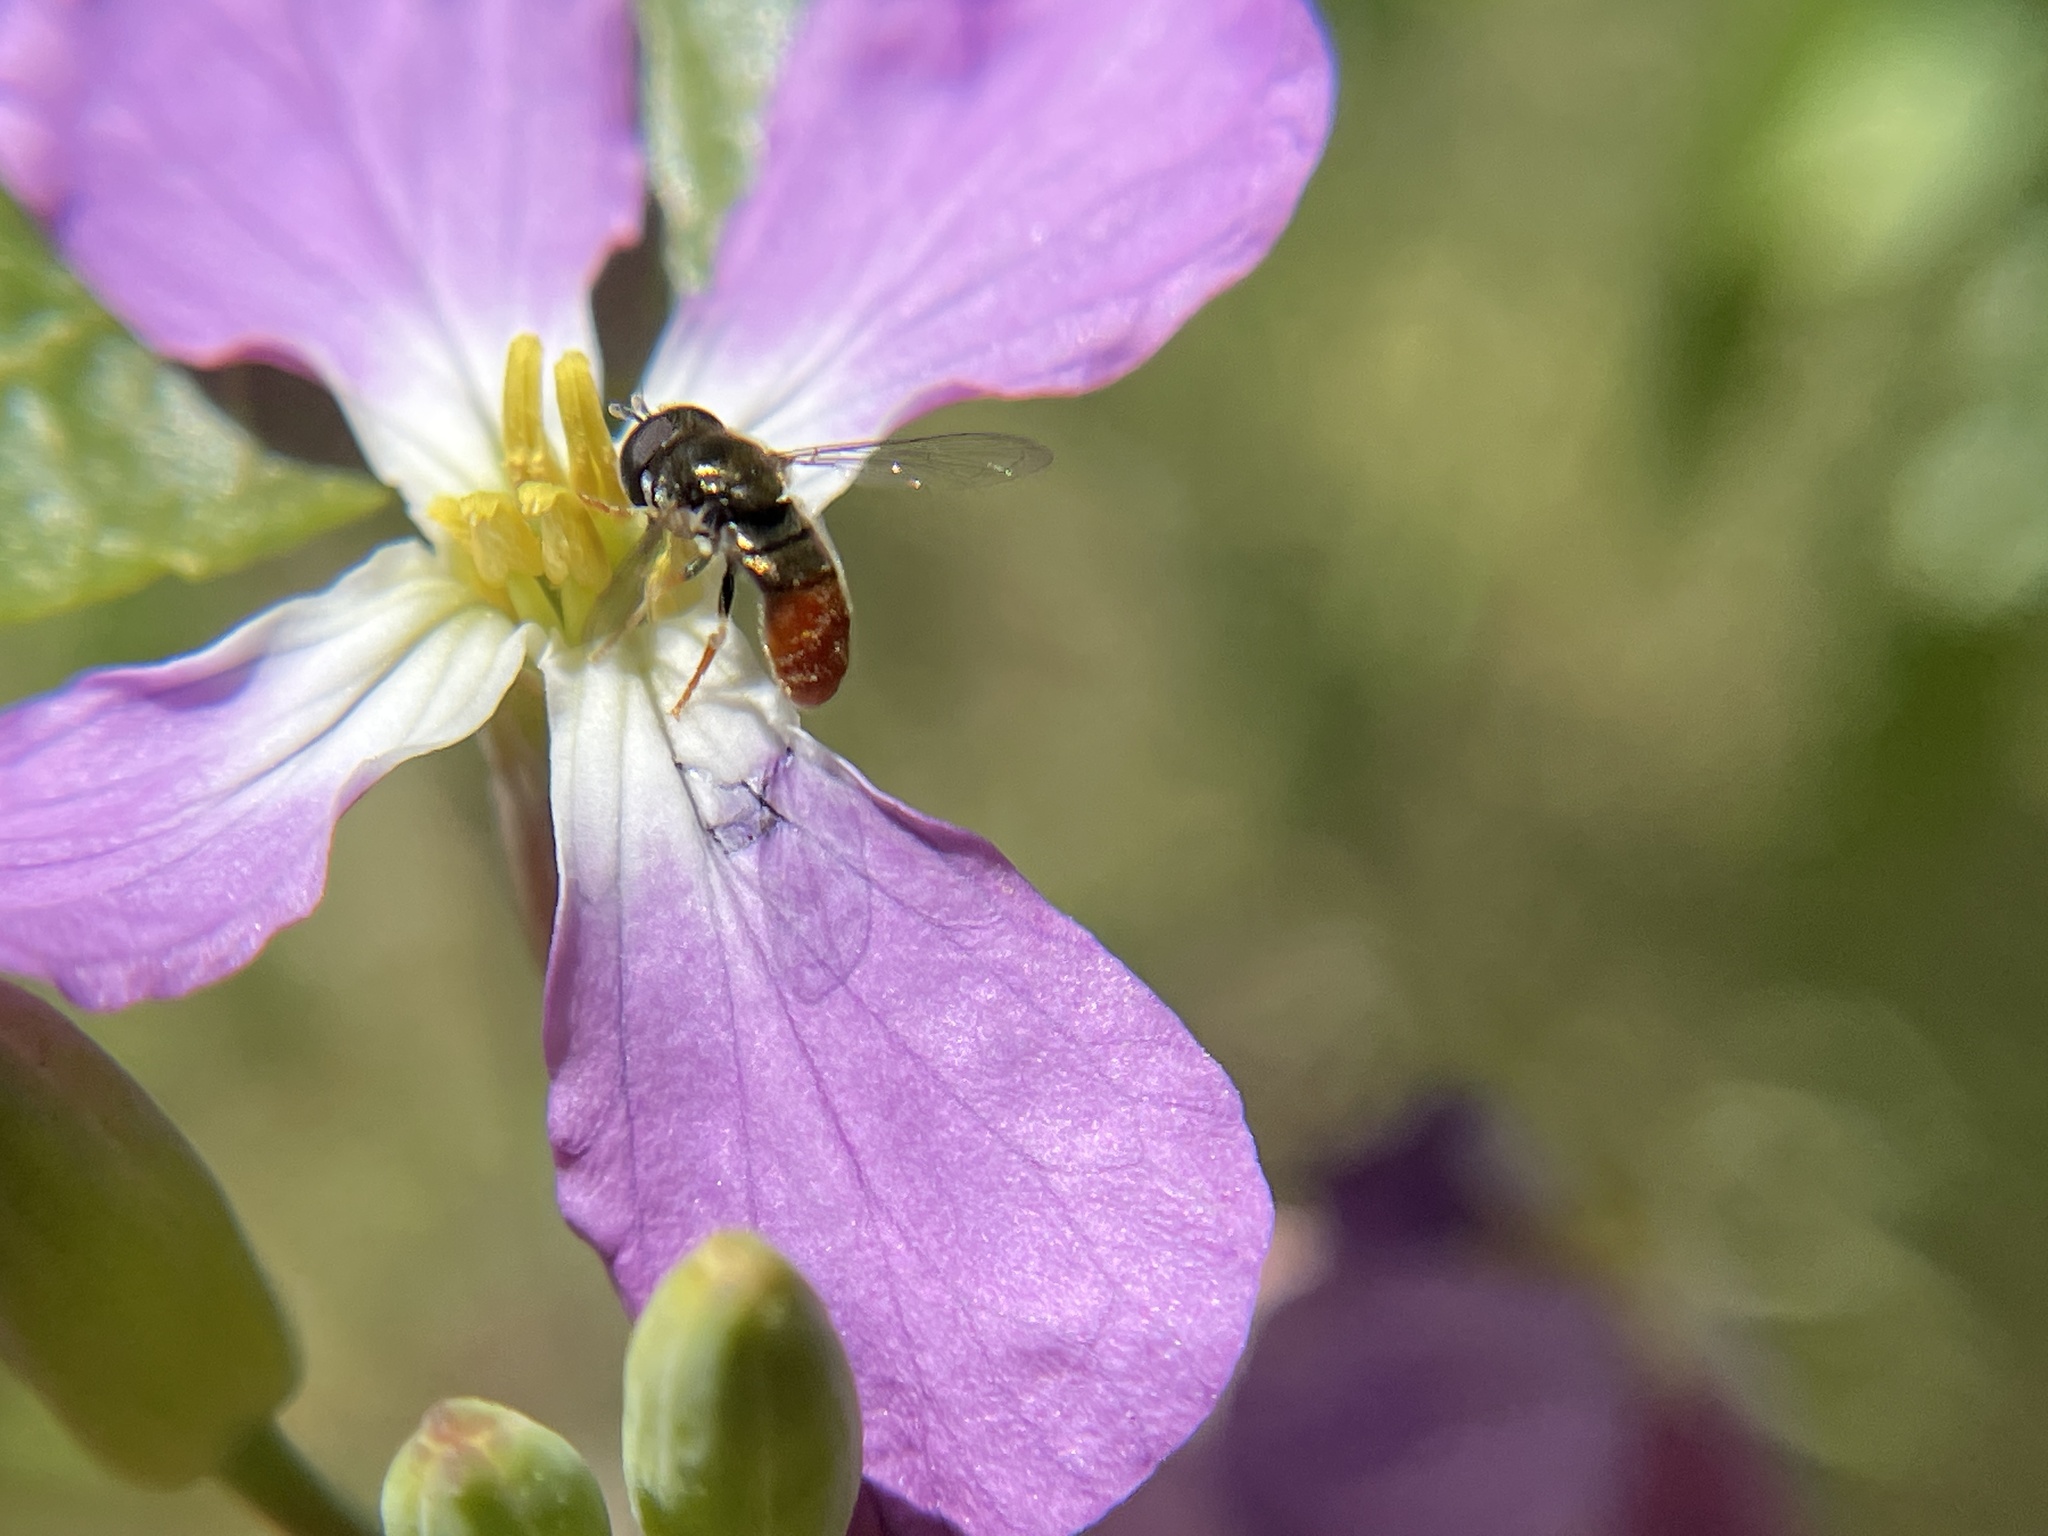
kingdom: Animalia
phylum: Arthropoda
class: Insecta
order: Diptera
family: Syrphidae
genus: Paragus
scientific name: Paragus haemorrhous
